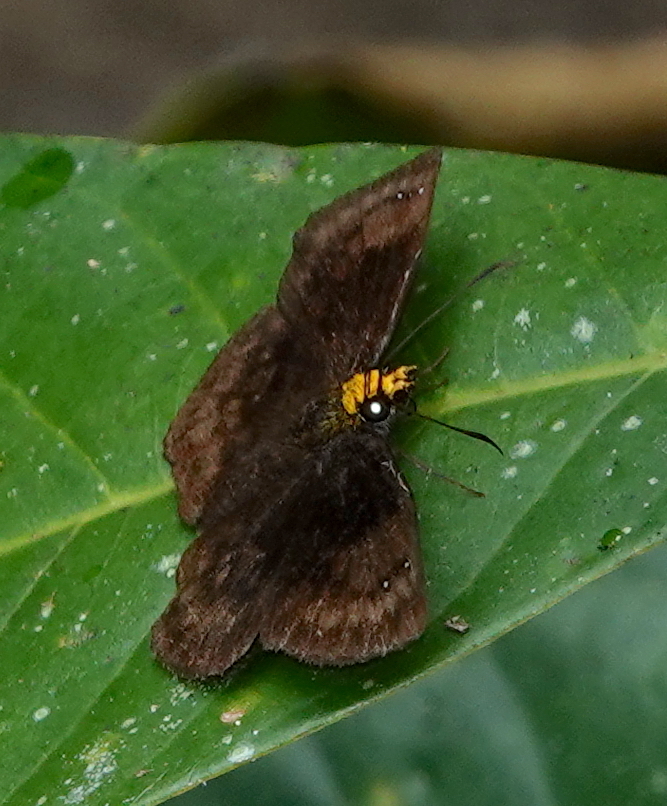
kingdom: Animalia
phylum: Arthropoda
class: Insecta
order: Lepidoptera
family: Hesperiidae
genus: Staphylus
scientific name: Staphylus vulgata
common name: Golden-snouted sootywing
